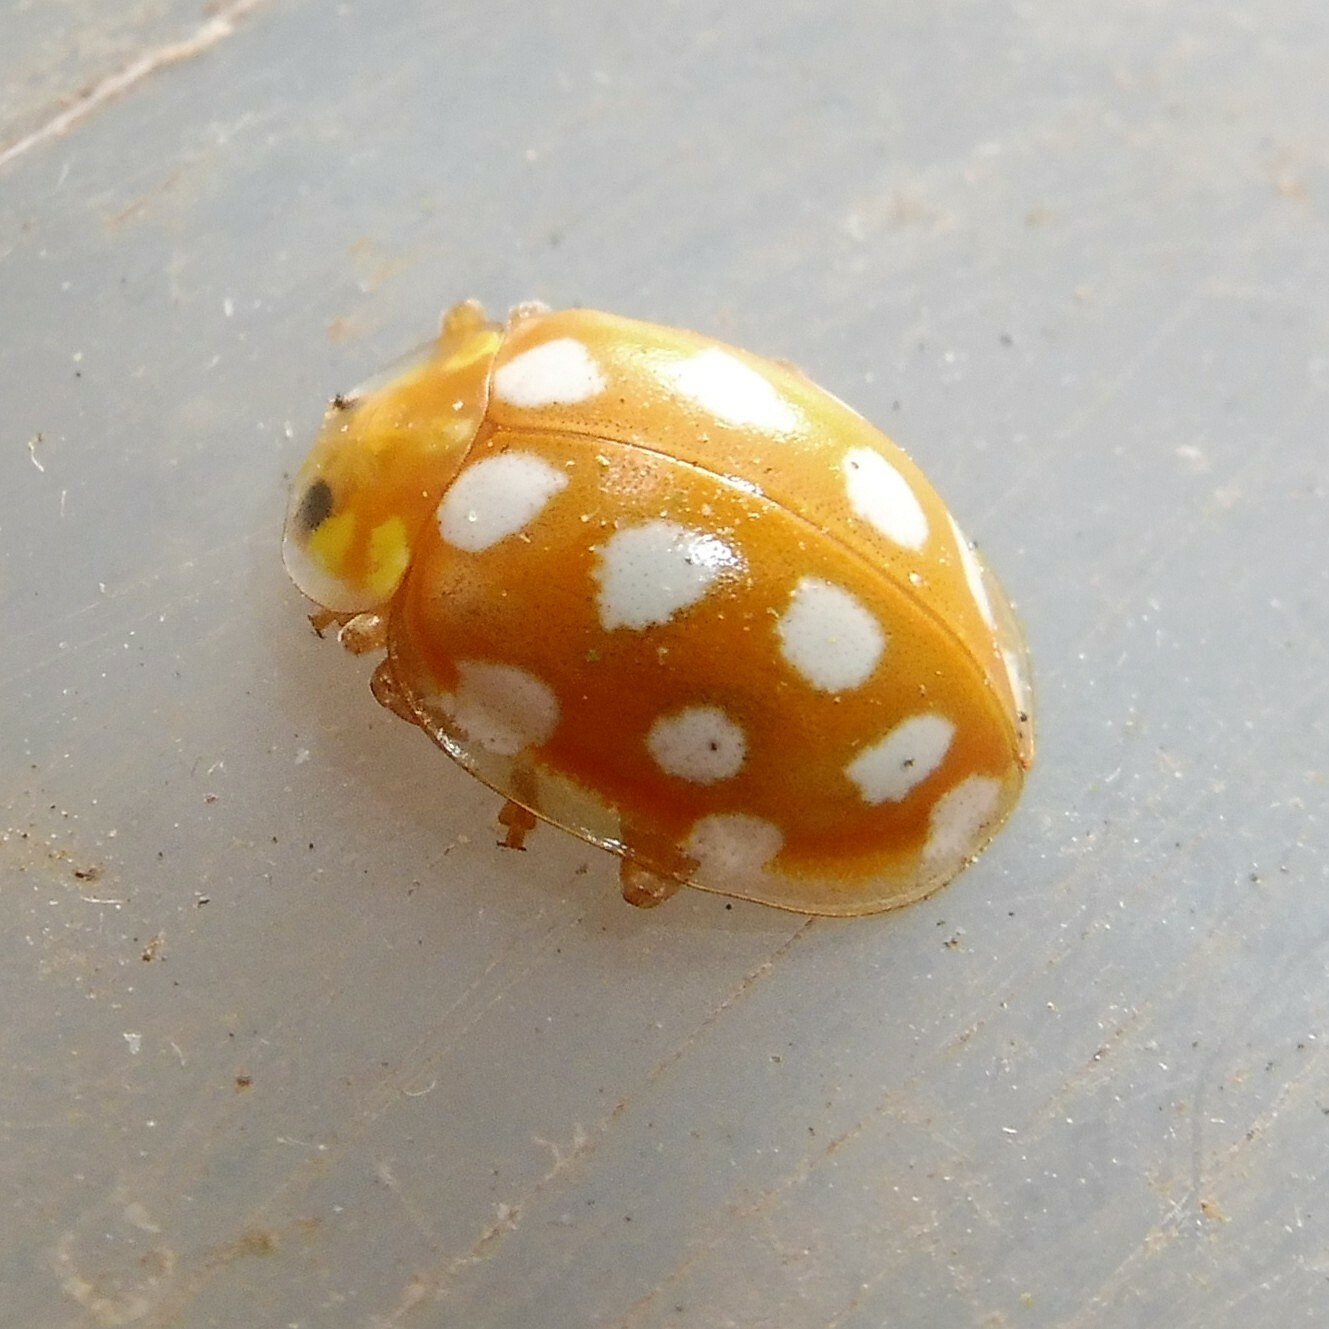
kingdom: Animalia
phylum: Arthropoda
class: Insecta
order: Coleoptera
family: Coccinellidae
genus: Halyzia
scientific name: Halyzia sedecimguttata
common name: Orange ladybird
